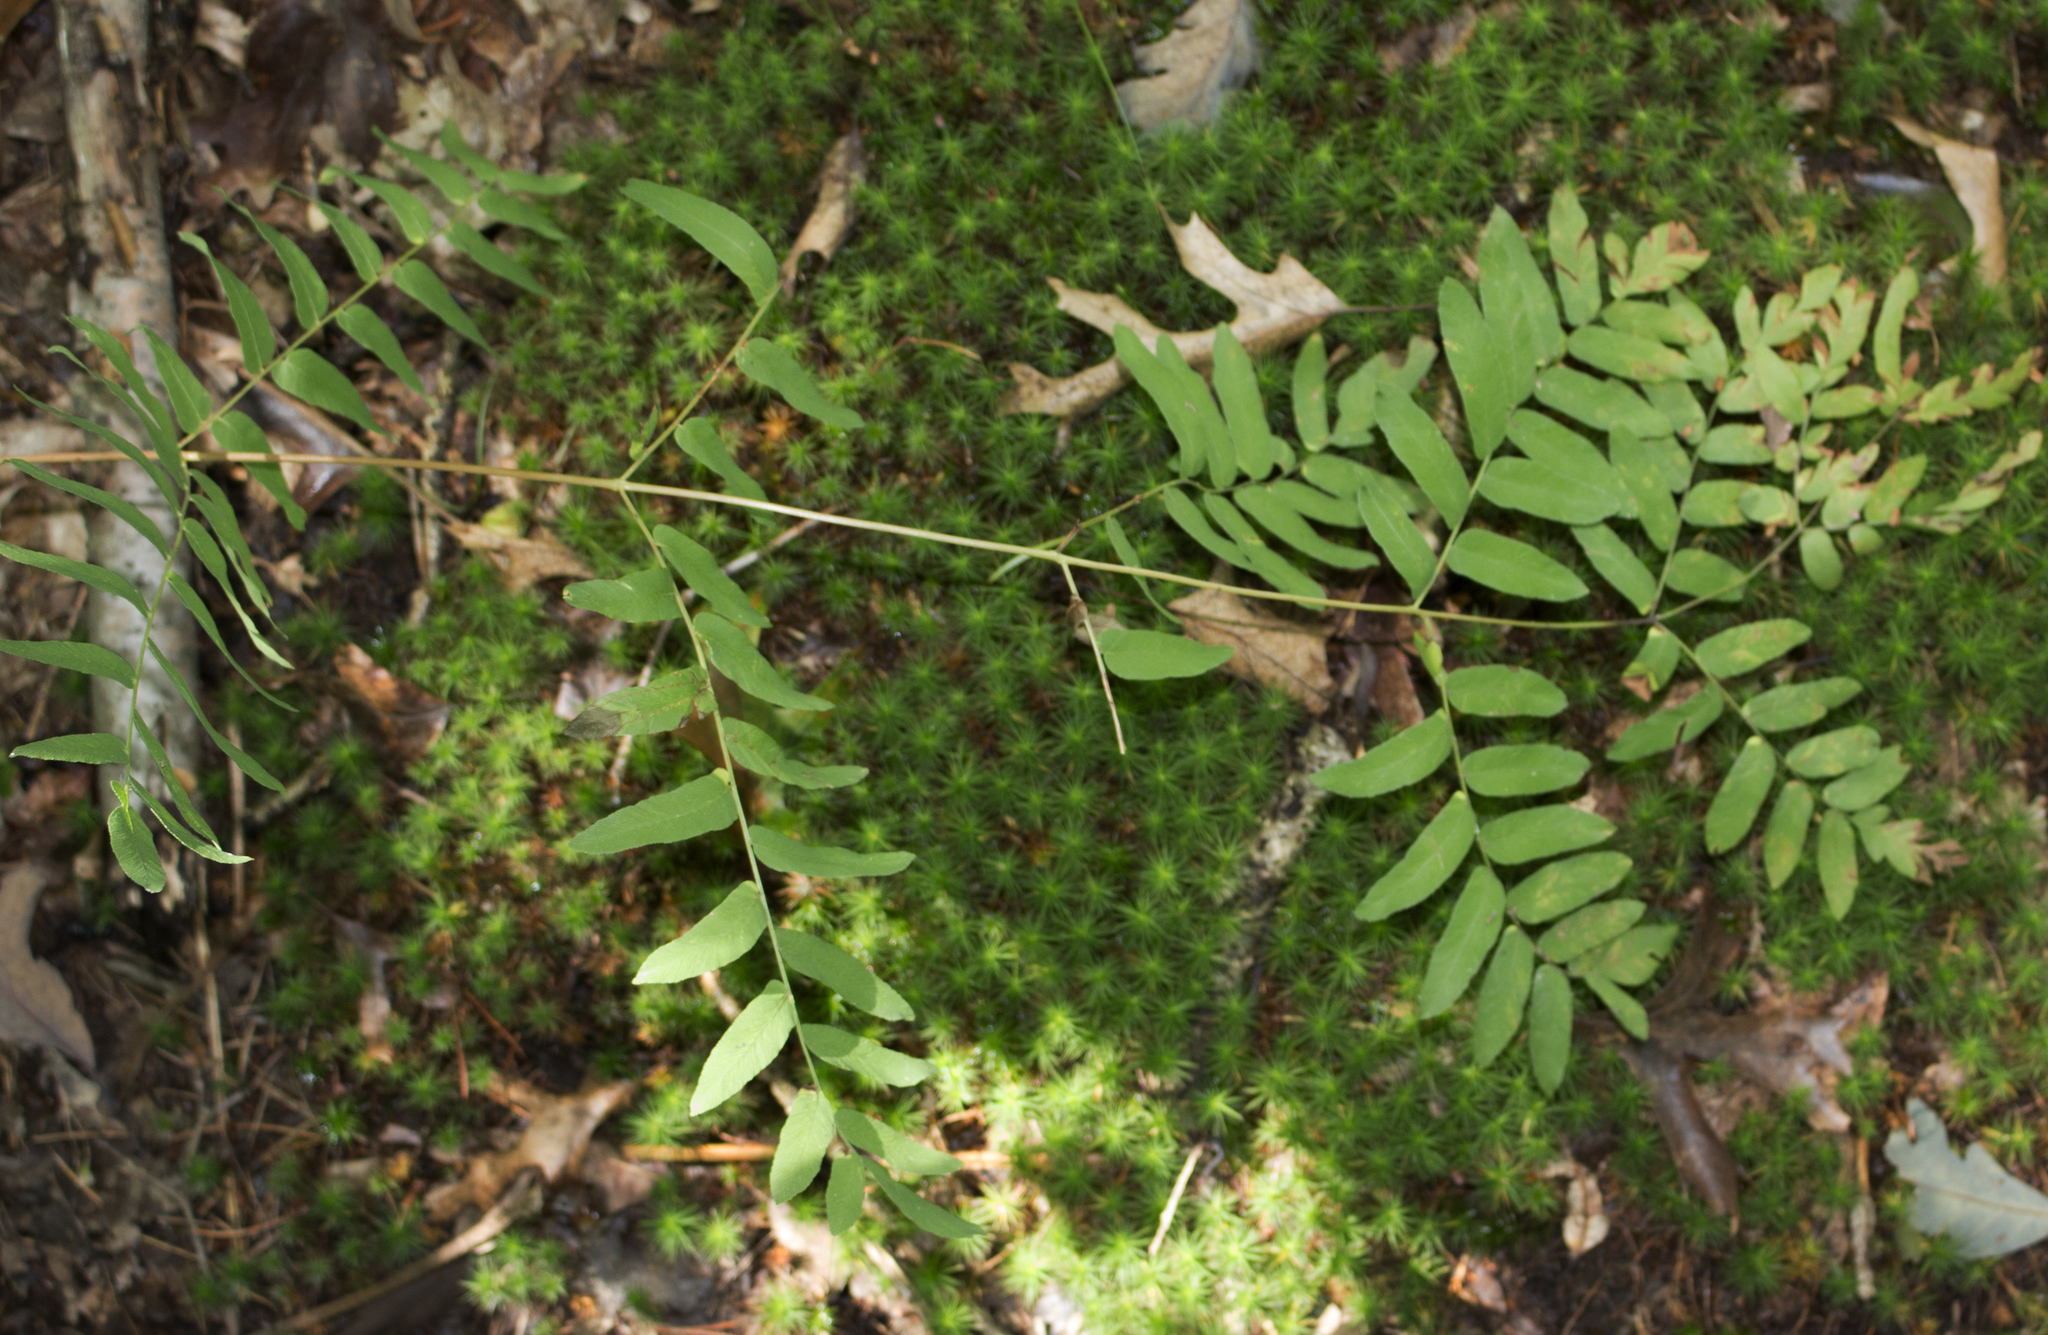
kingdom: Plantae
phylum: Tracheophyta
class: Polypodiopsida
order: Osmundales
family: Osmundaceae
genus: Osmunda
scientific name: Osmunda spectabilis
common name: American royal fern
